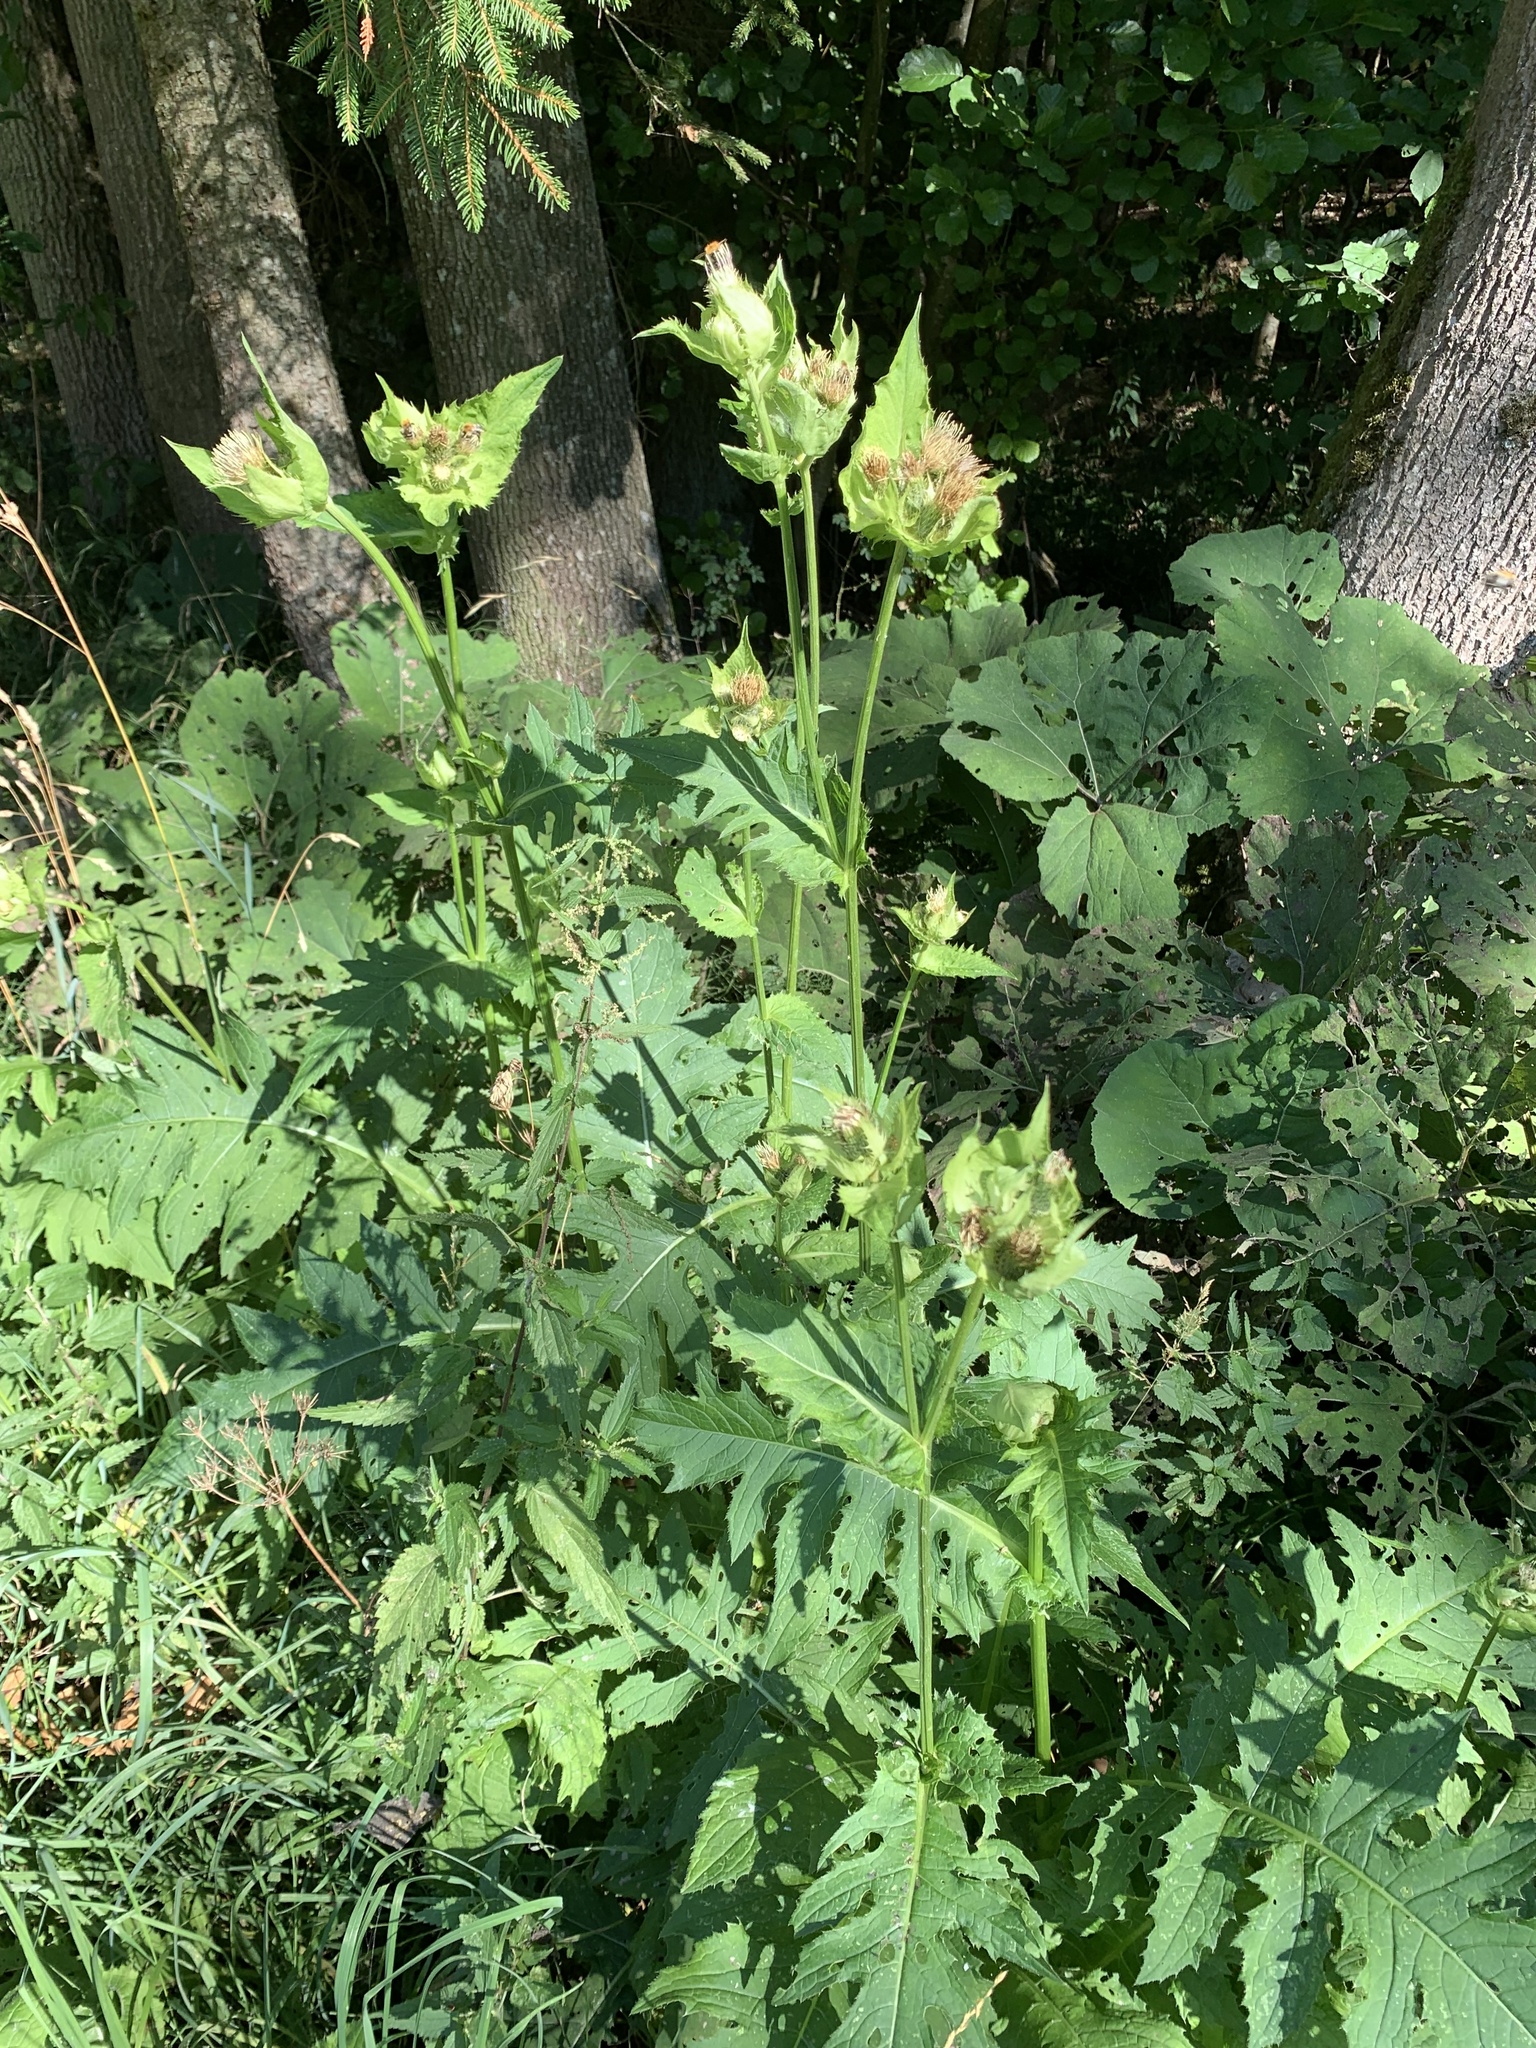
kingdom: Plantae
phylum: Tracheophyta
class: Magnoliopsida
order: Asterales
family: Asteraceae
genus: Cirsium
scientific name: Cirsium oleraceum
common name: Cabbage thistle
